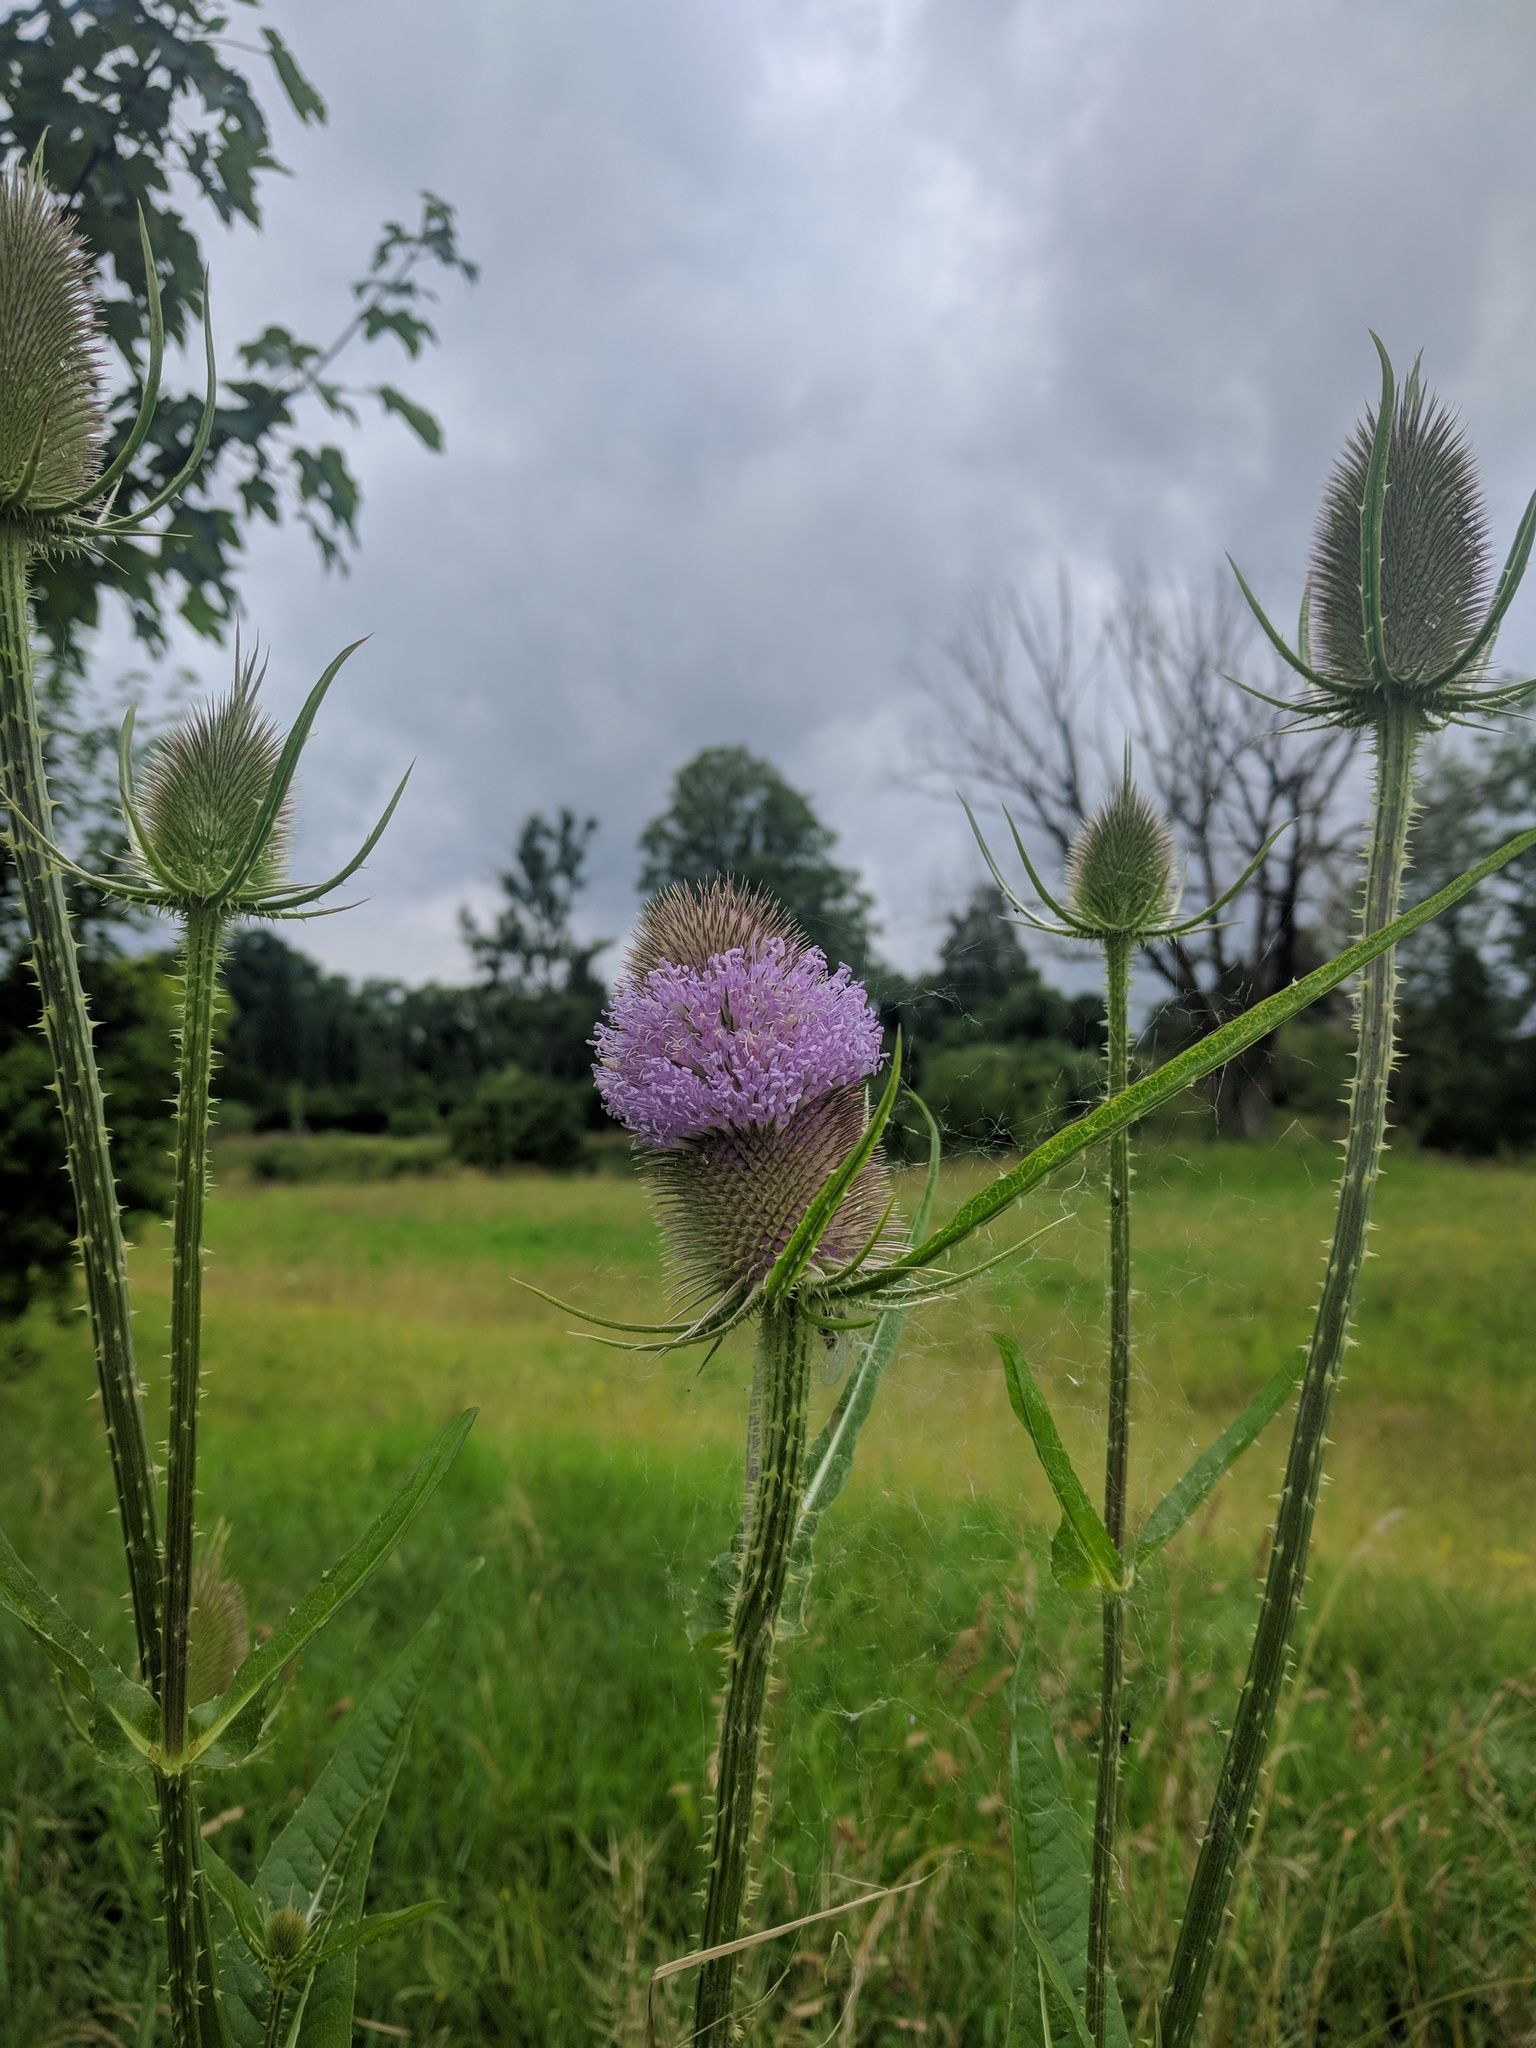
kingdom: Plantae
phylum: Tracheophyta
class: Magnoliopsida
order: Dipsacales
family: Caprifoliaceae
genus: Dipsacus
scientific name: Dipsacus fullonum
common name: Teasel
